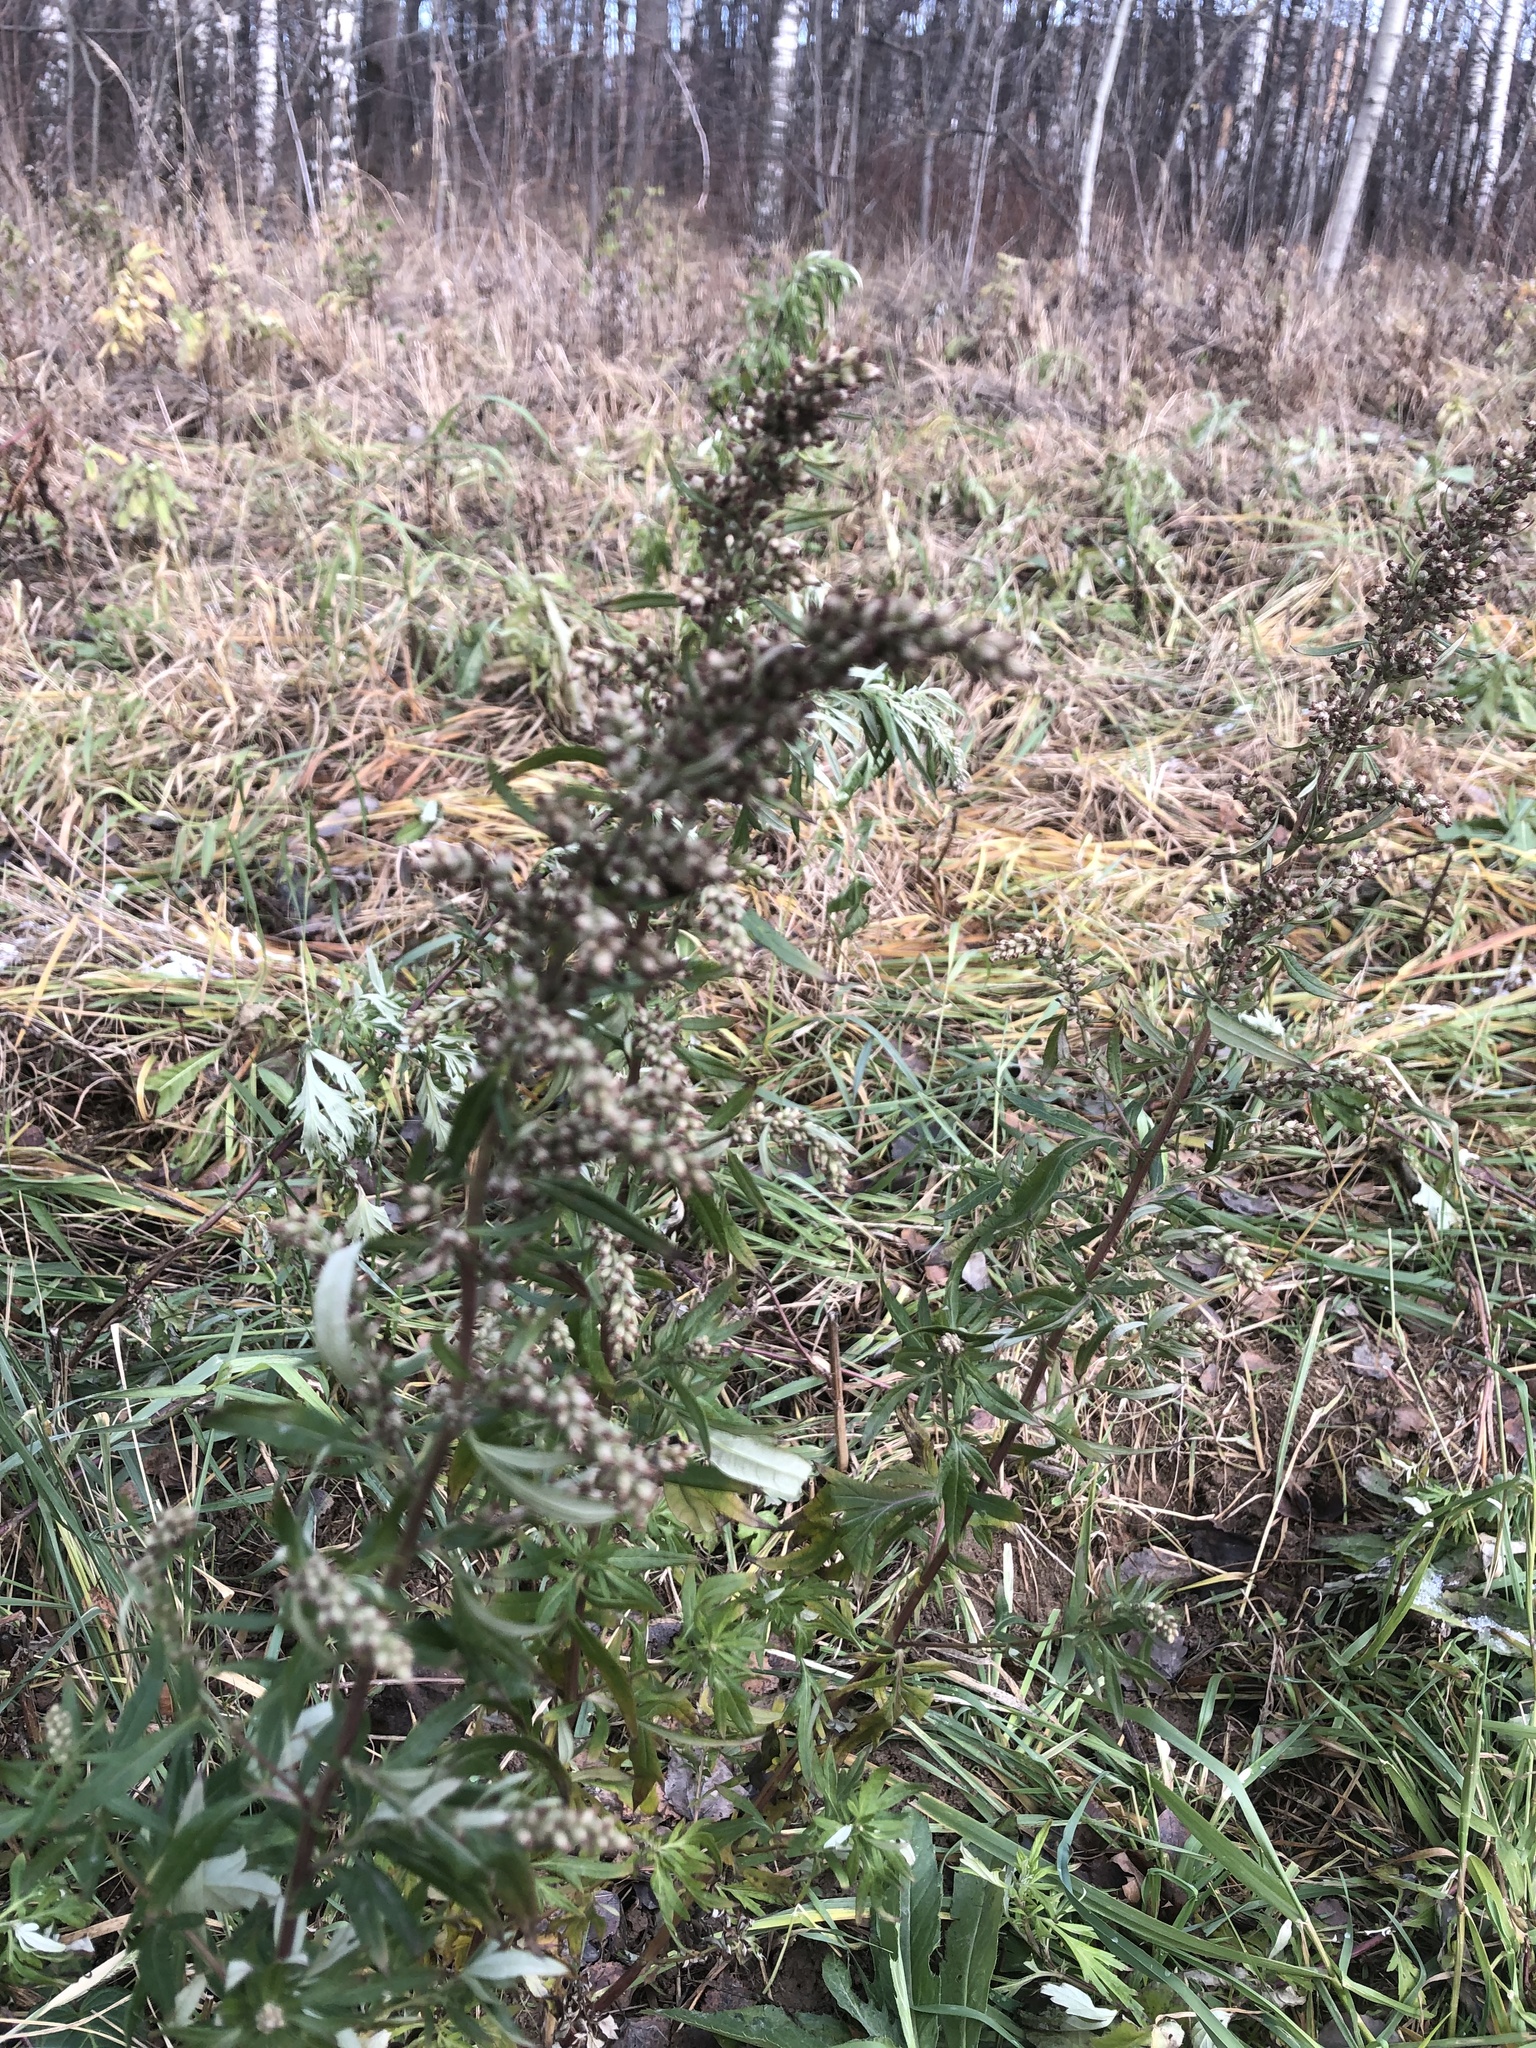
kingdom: Plantae
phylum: Tracheophyta
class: Magnoliopsida
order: Asterales
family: Asteraceae
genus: Artemisia
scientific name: Artemisia vulgaris
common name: Mugwort
